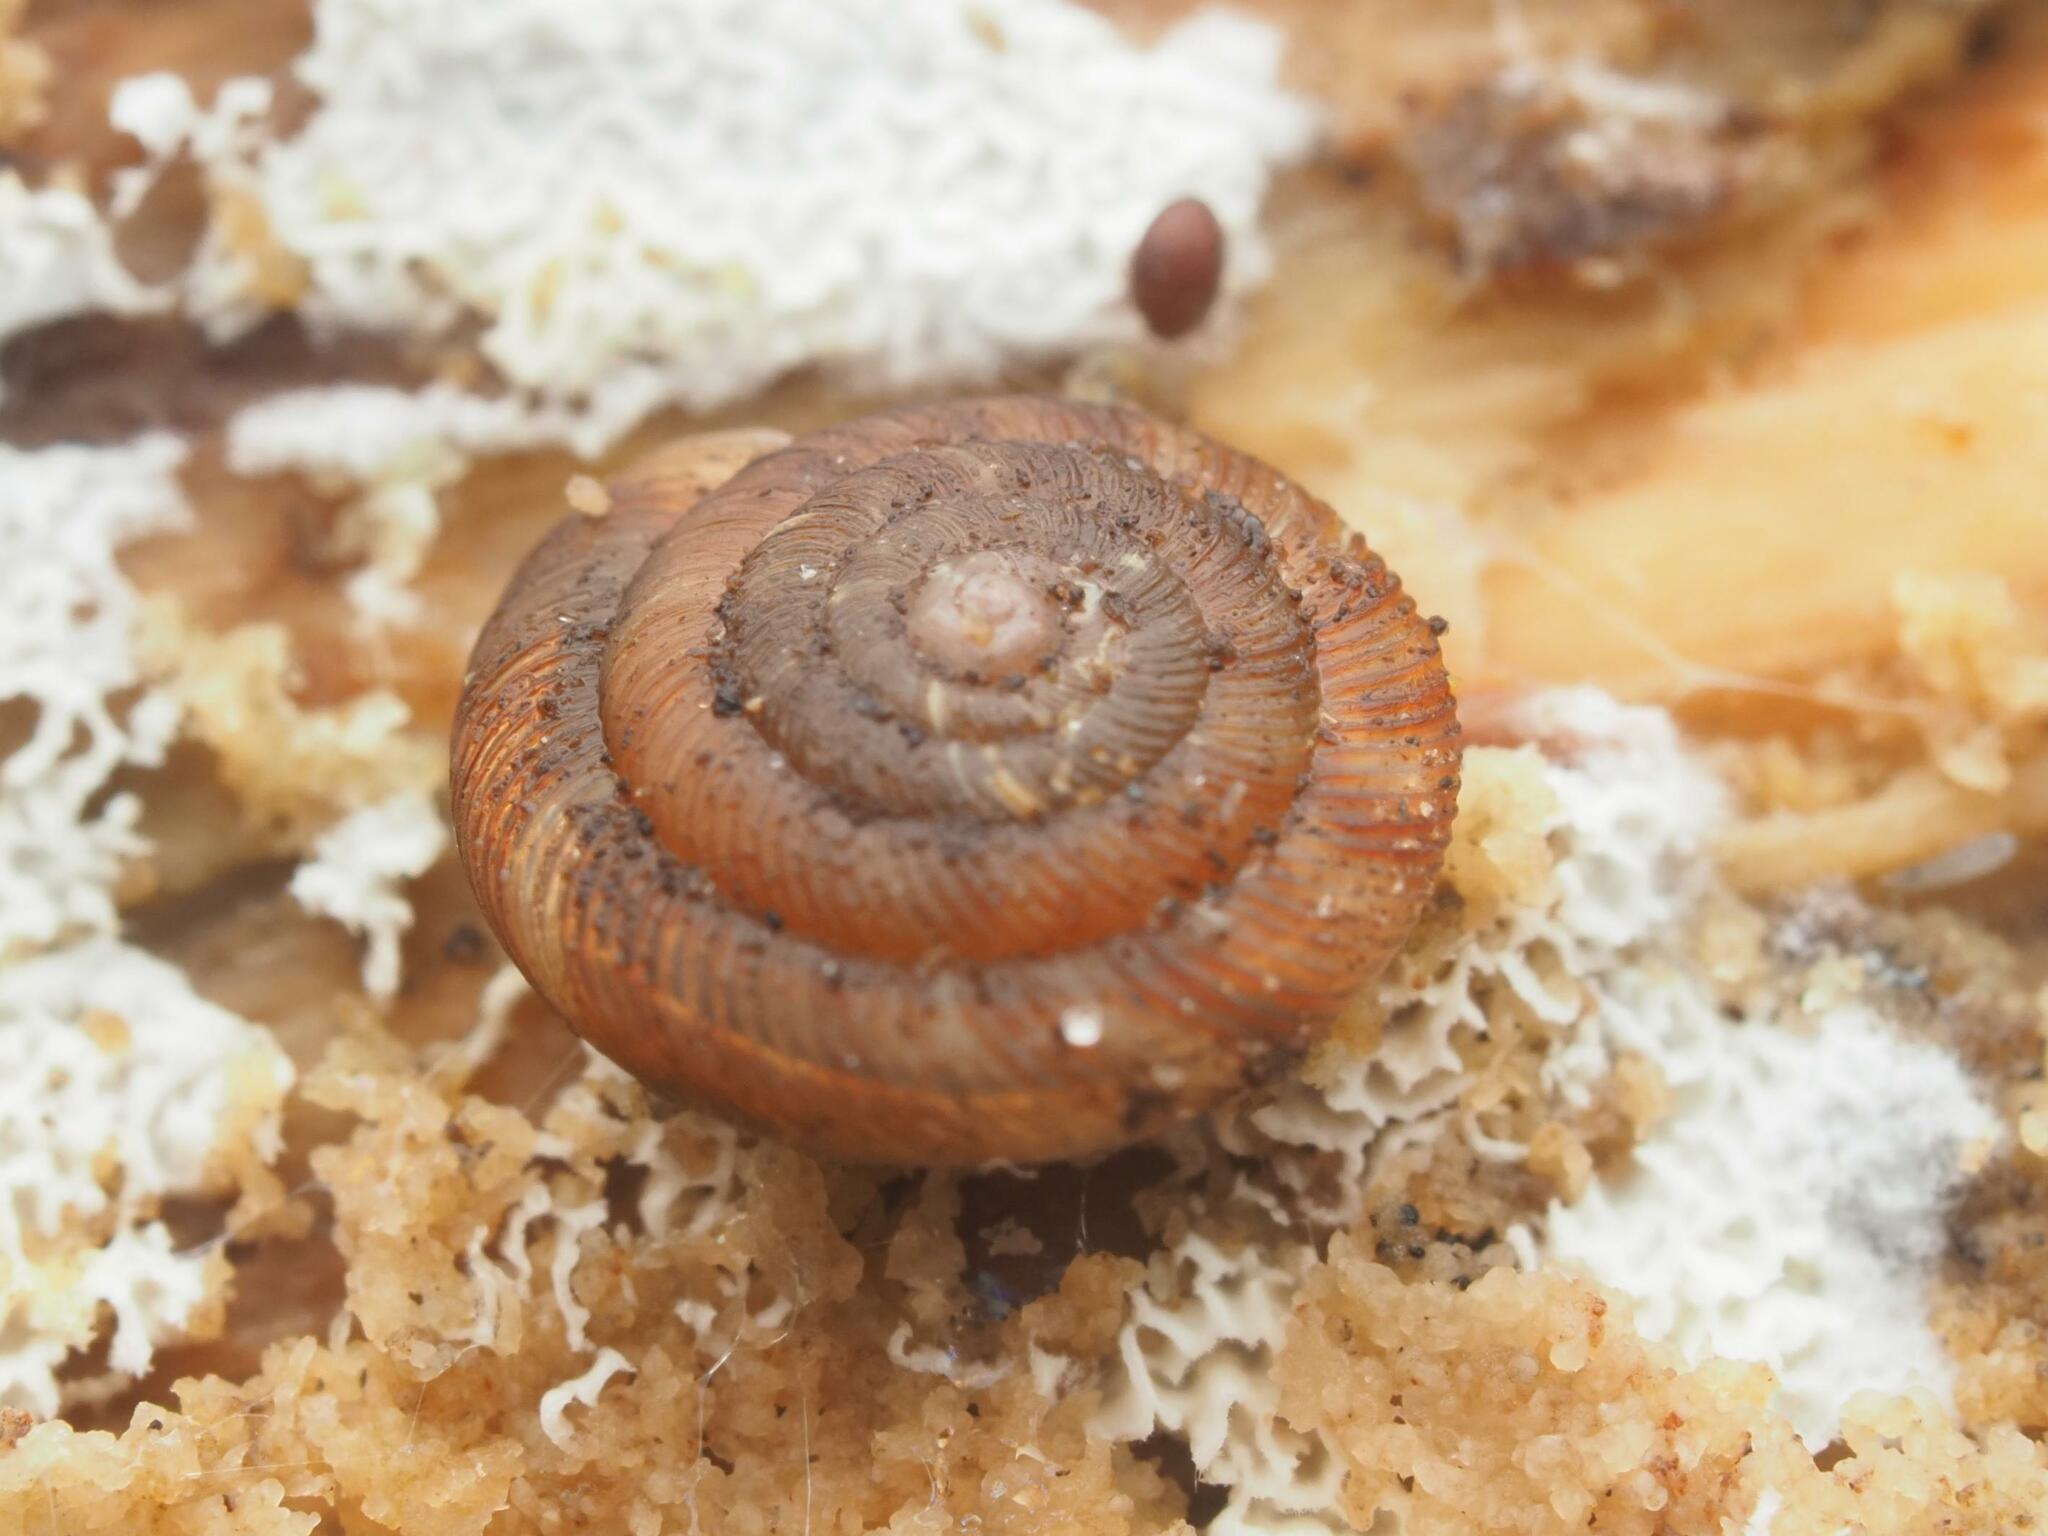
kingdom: Animalia
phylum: Mollusca
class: Gastropoda
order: Stylommatophora
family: Discidae
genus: Discus
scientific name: Discus rotundatus
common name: Rounded snail
